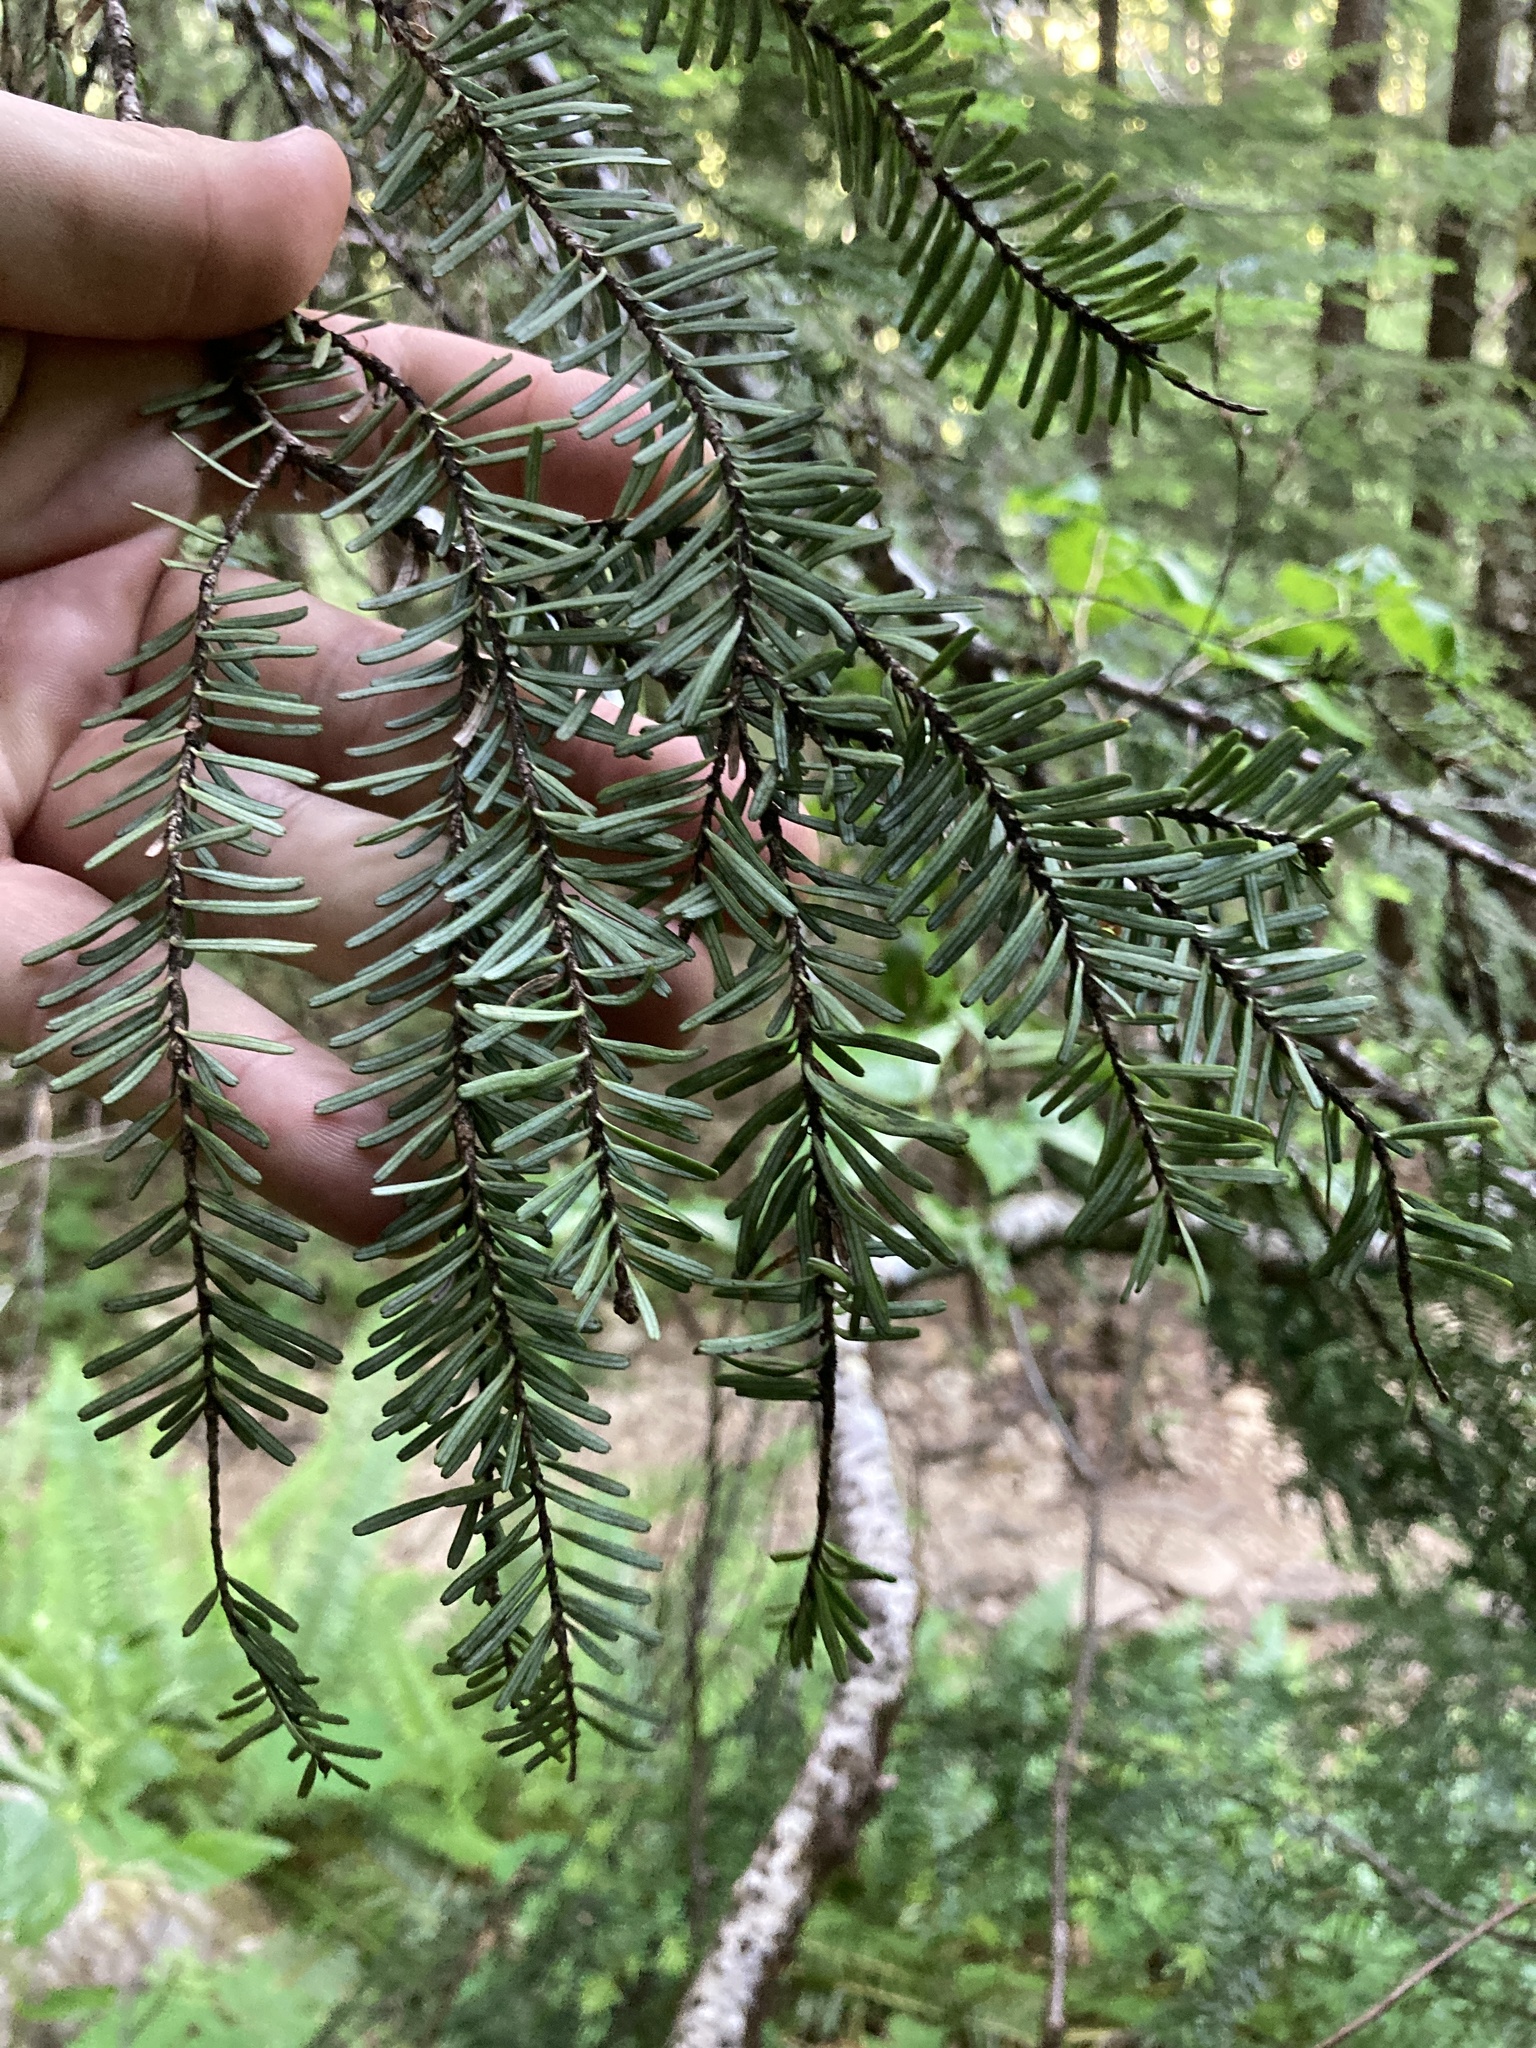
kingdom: Plantae
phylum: Tracheophyta
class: Pinopsida
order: Pinales
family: Pinaceae
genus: Abies
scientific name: Abies amabilis
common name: Pacific silver fir
